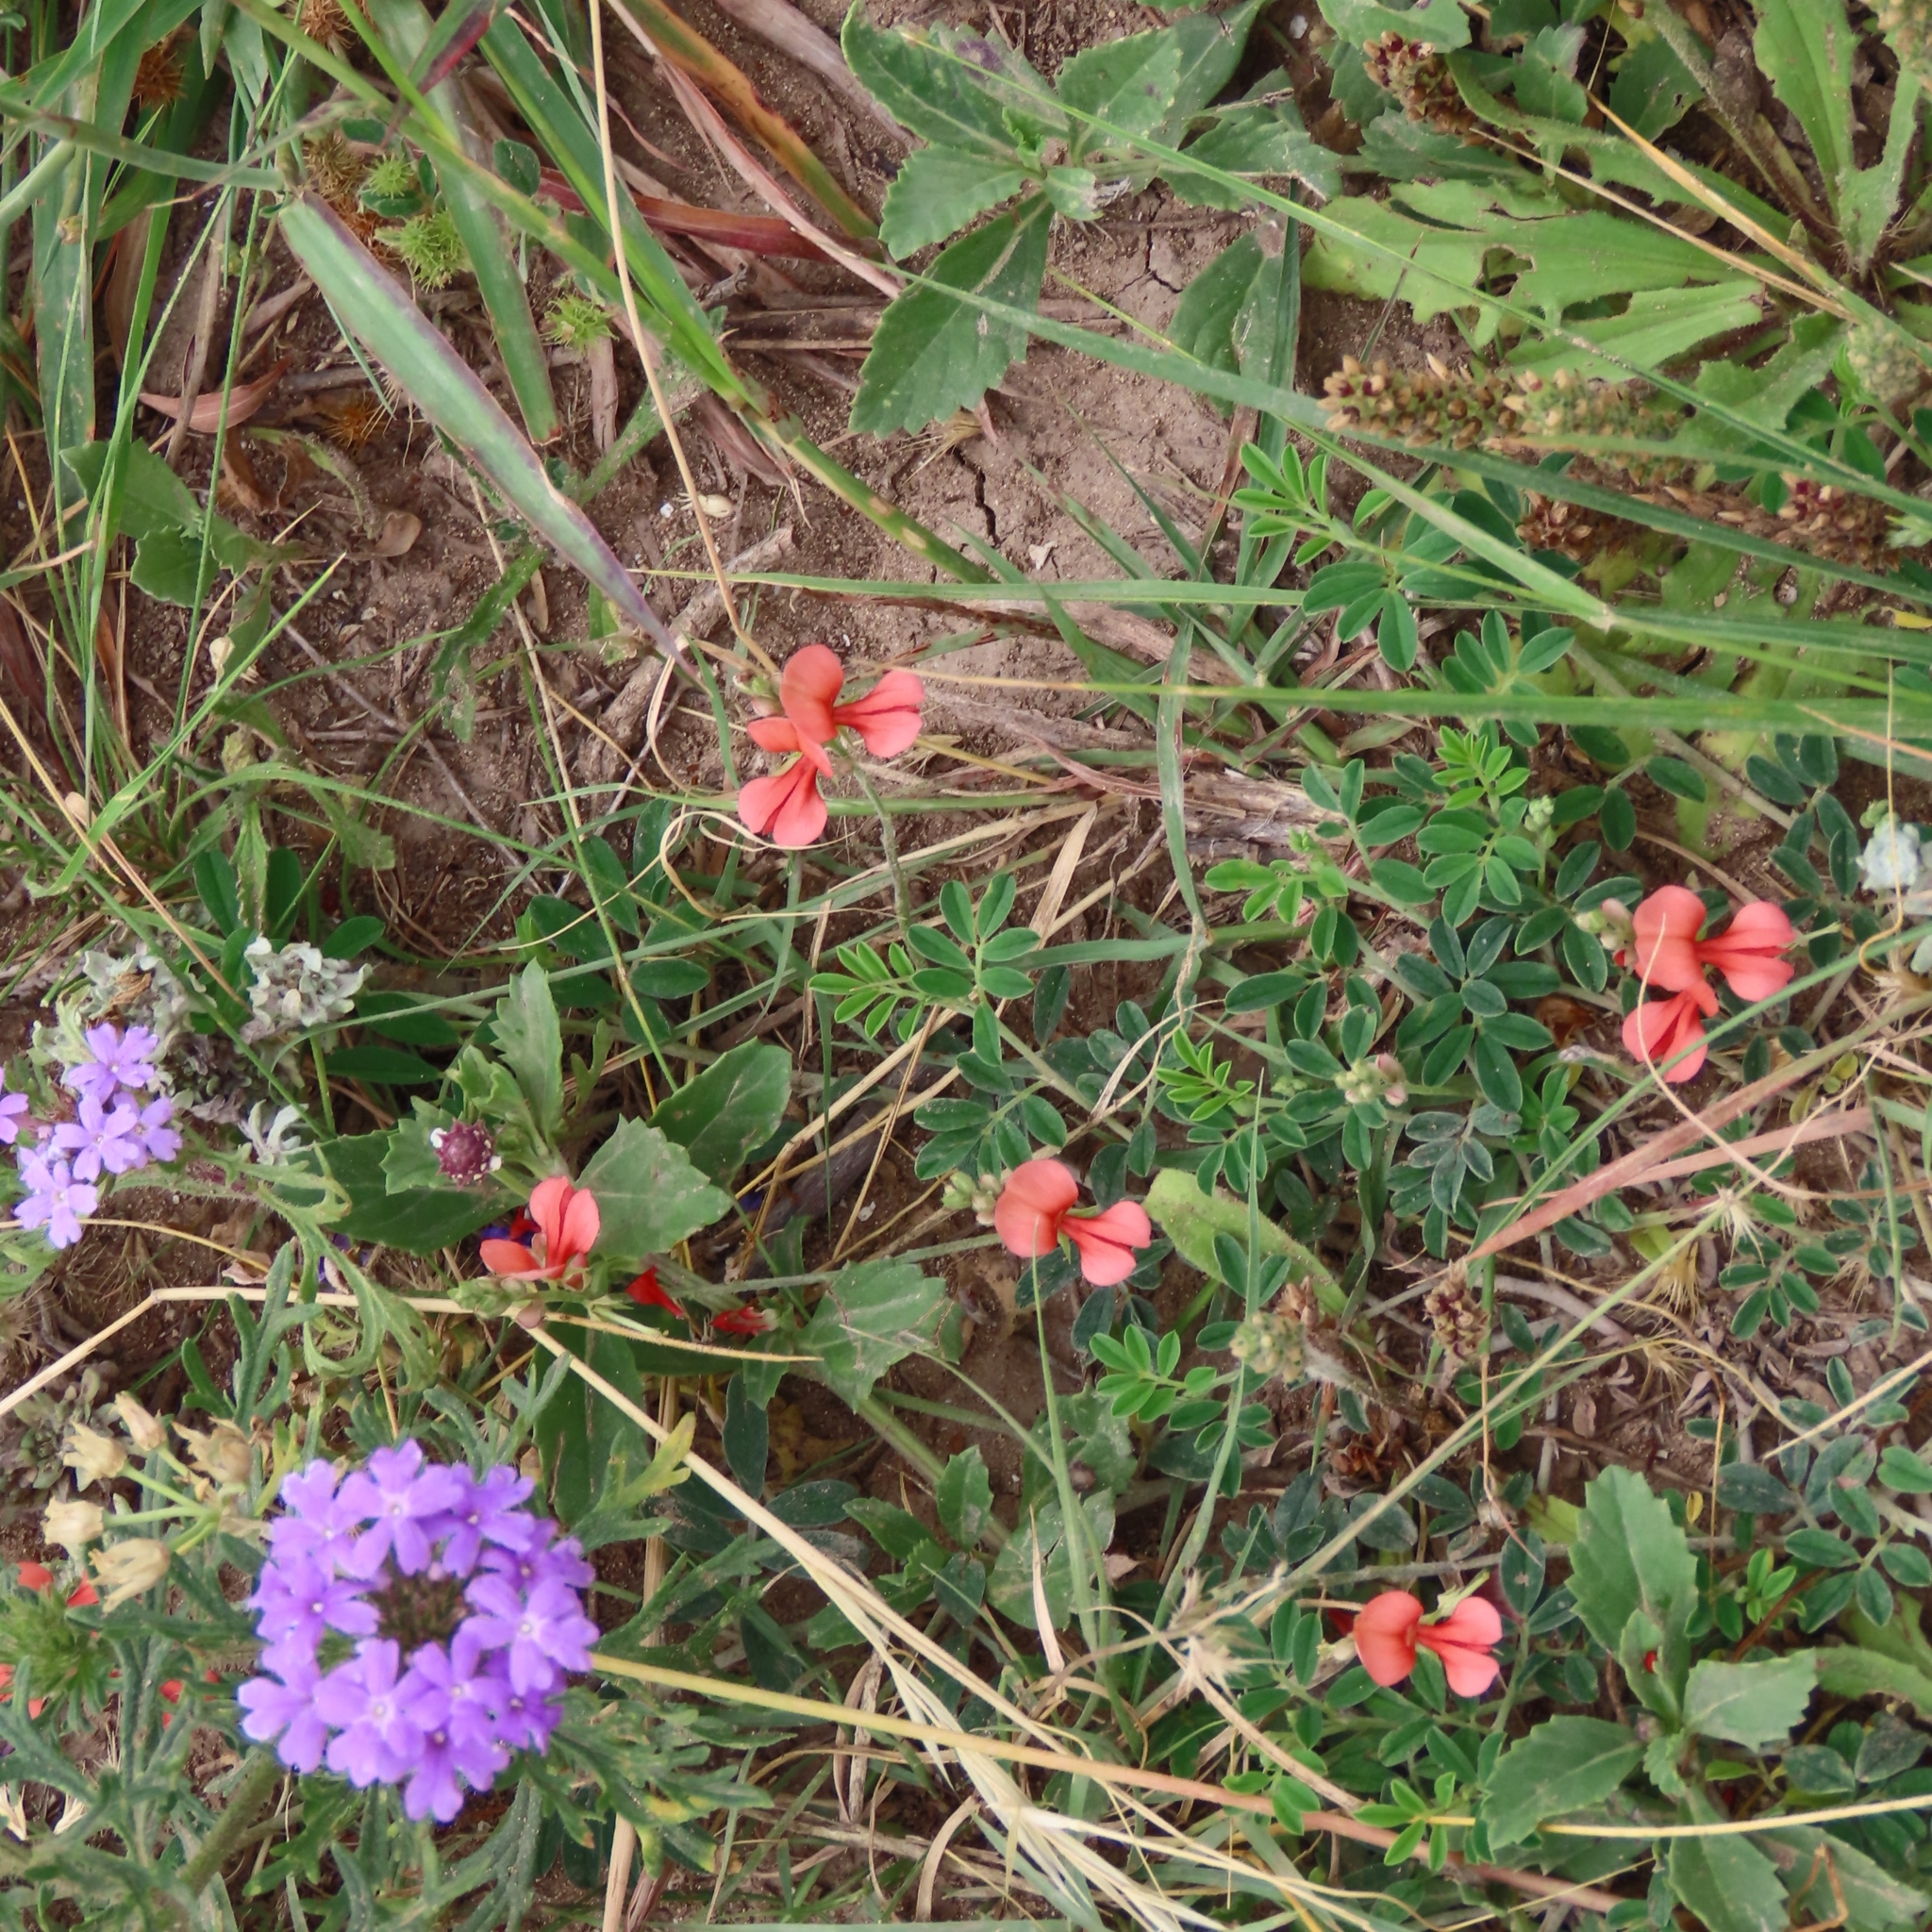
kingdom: Plantae
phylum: Tracheophyta
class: Magnoliopsida
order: Fabales
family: Fabaceae
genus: Indigofera
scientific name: Indigofera miniata
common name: Coast indigo
